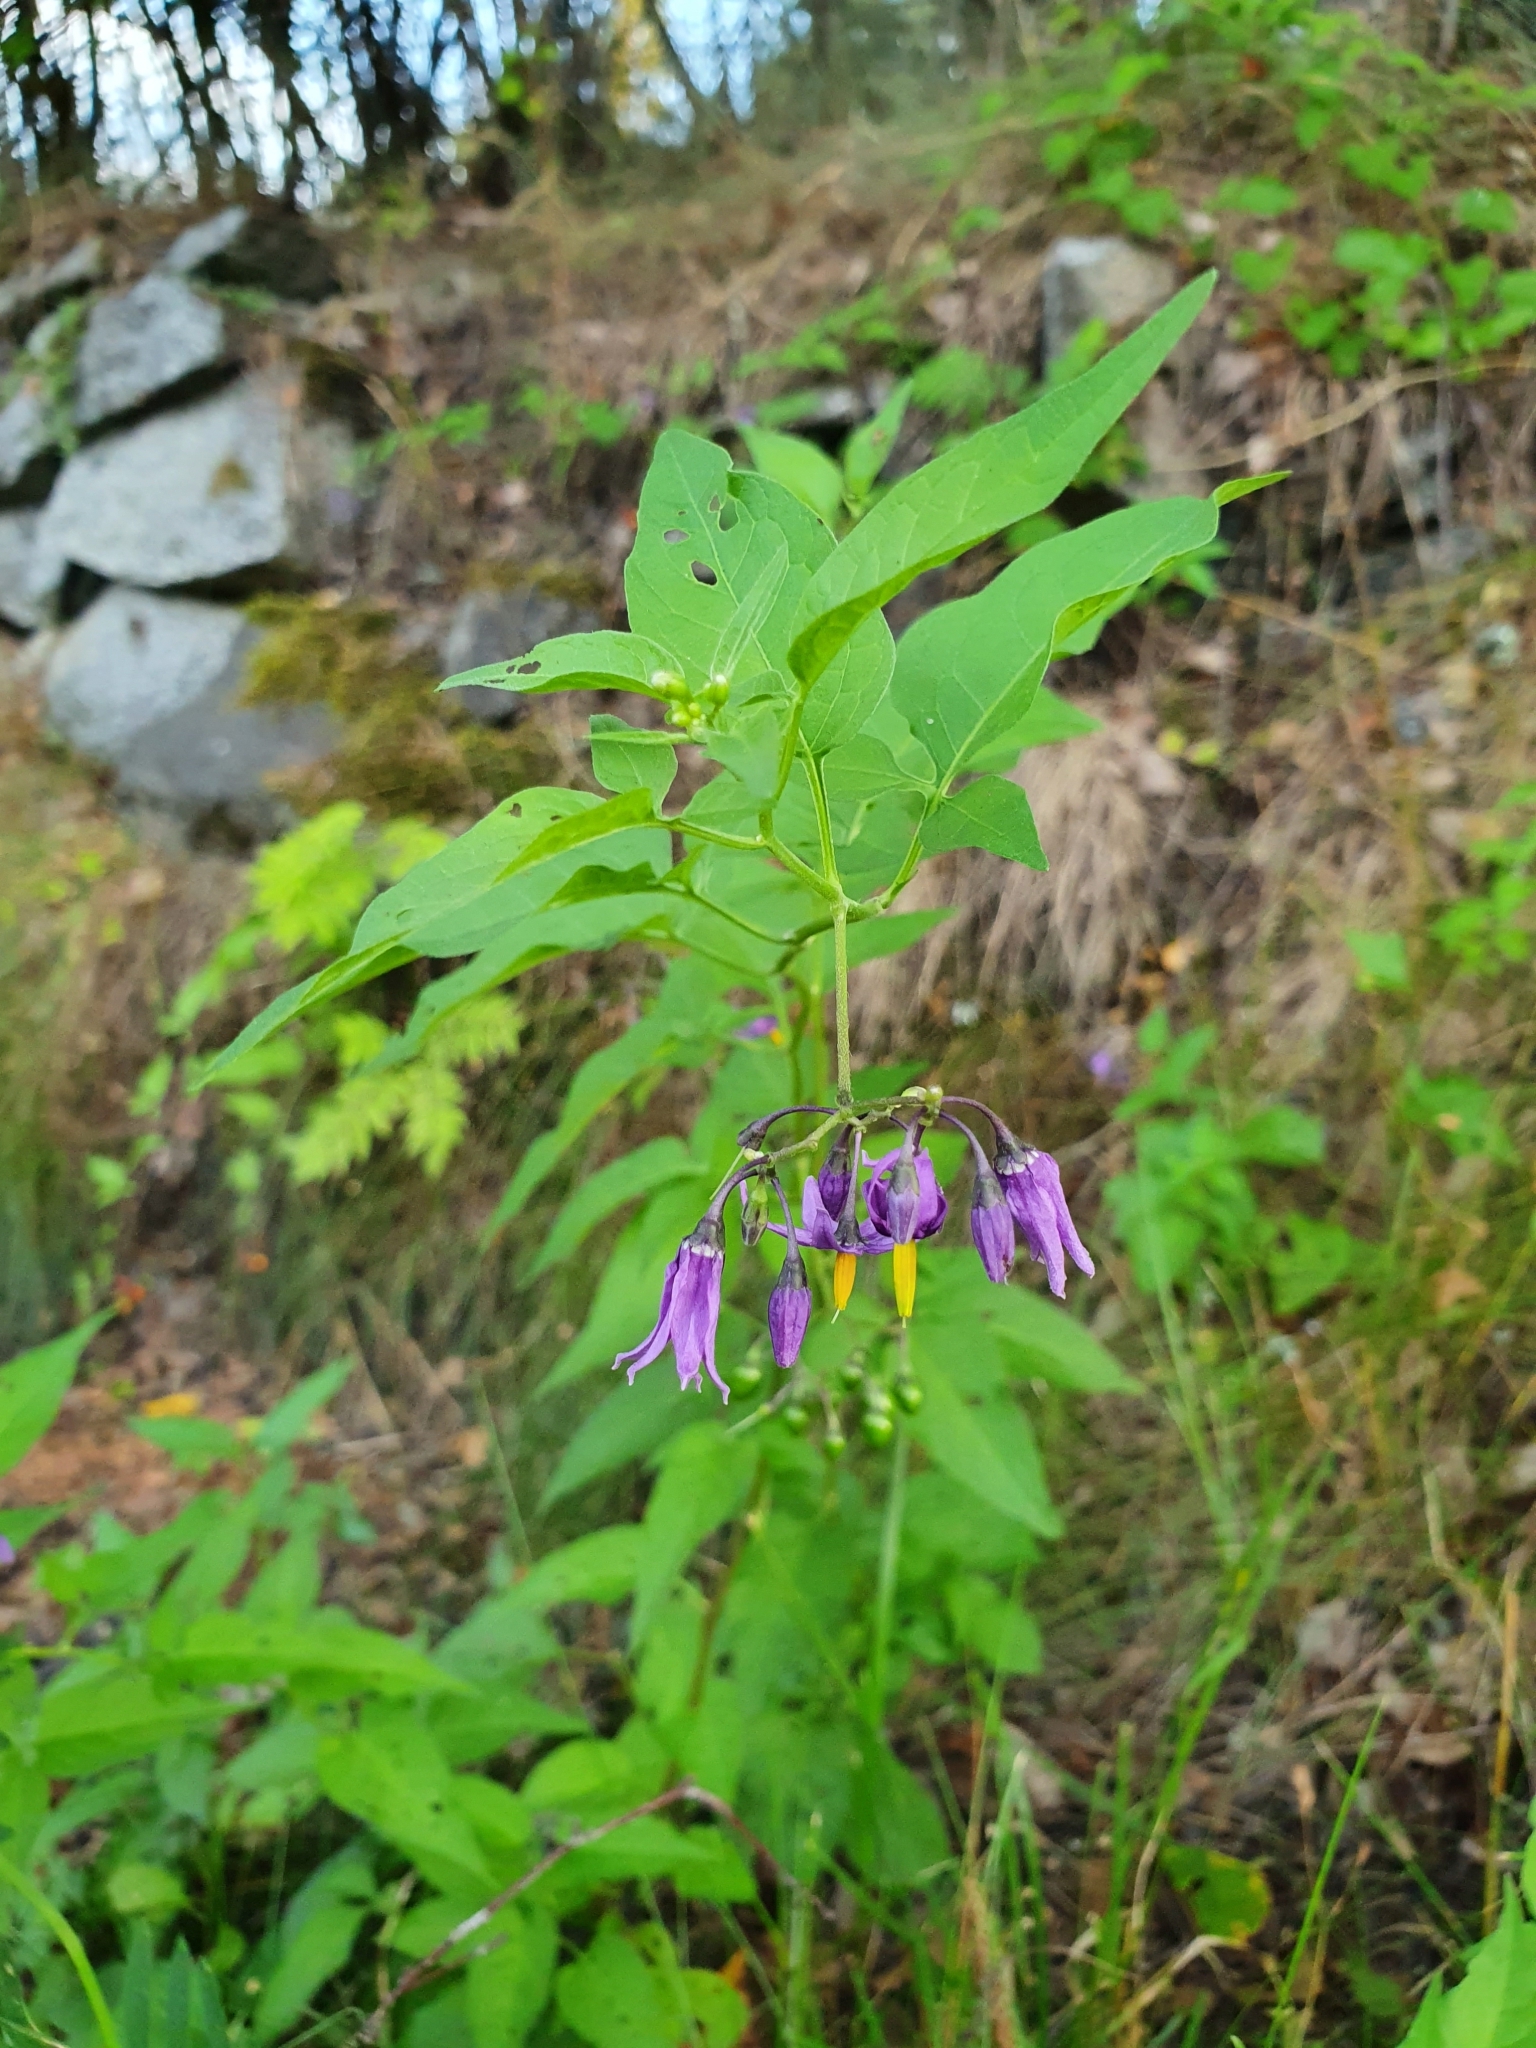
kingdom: Plantae
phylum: Tracheophyta
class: Magnoliopsida
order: Solanales
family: Solanaceae
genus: Solanum
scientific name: Solanum dulcamara
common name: Climbing nightshade
